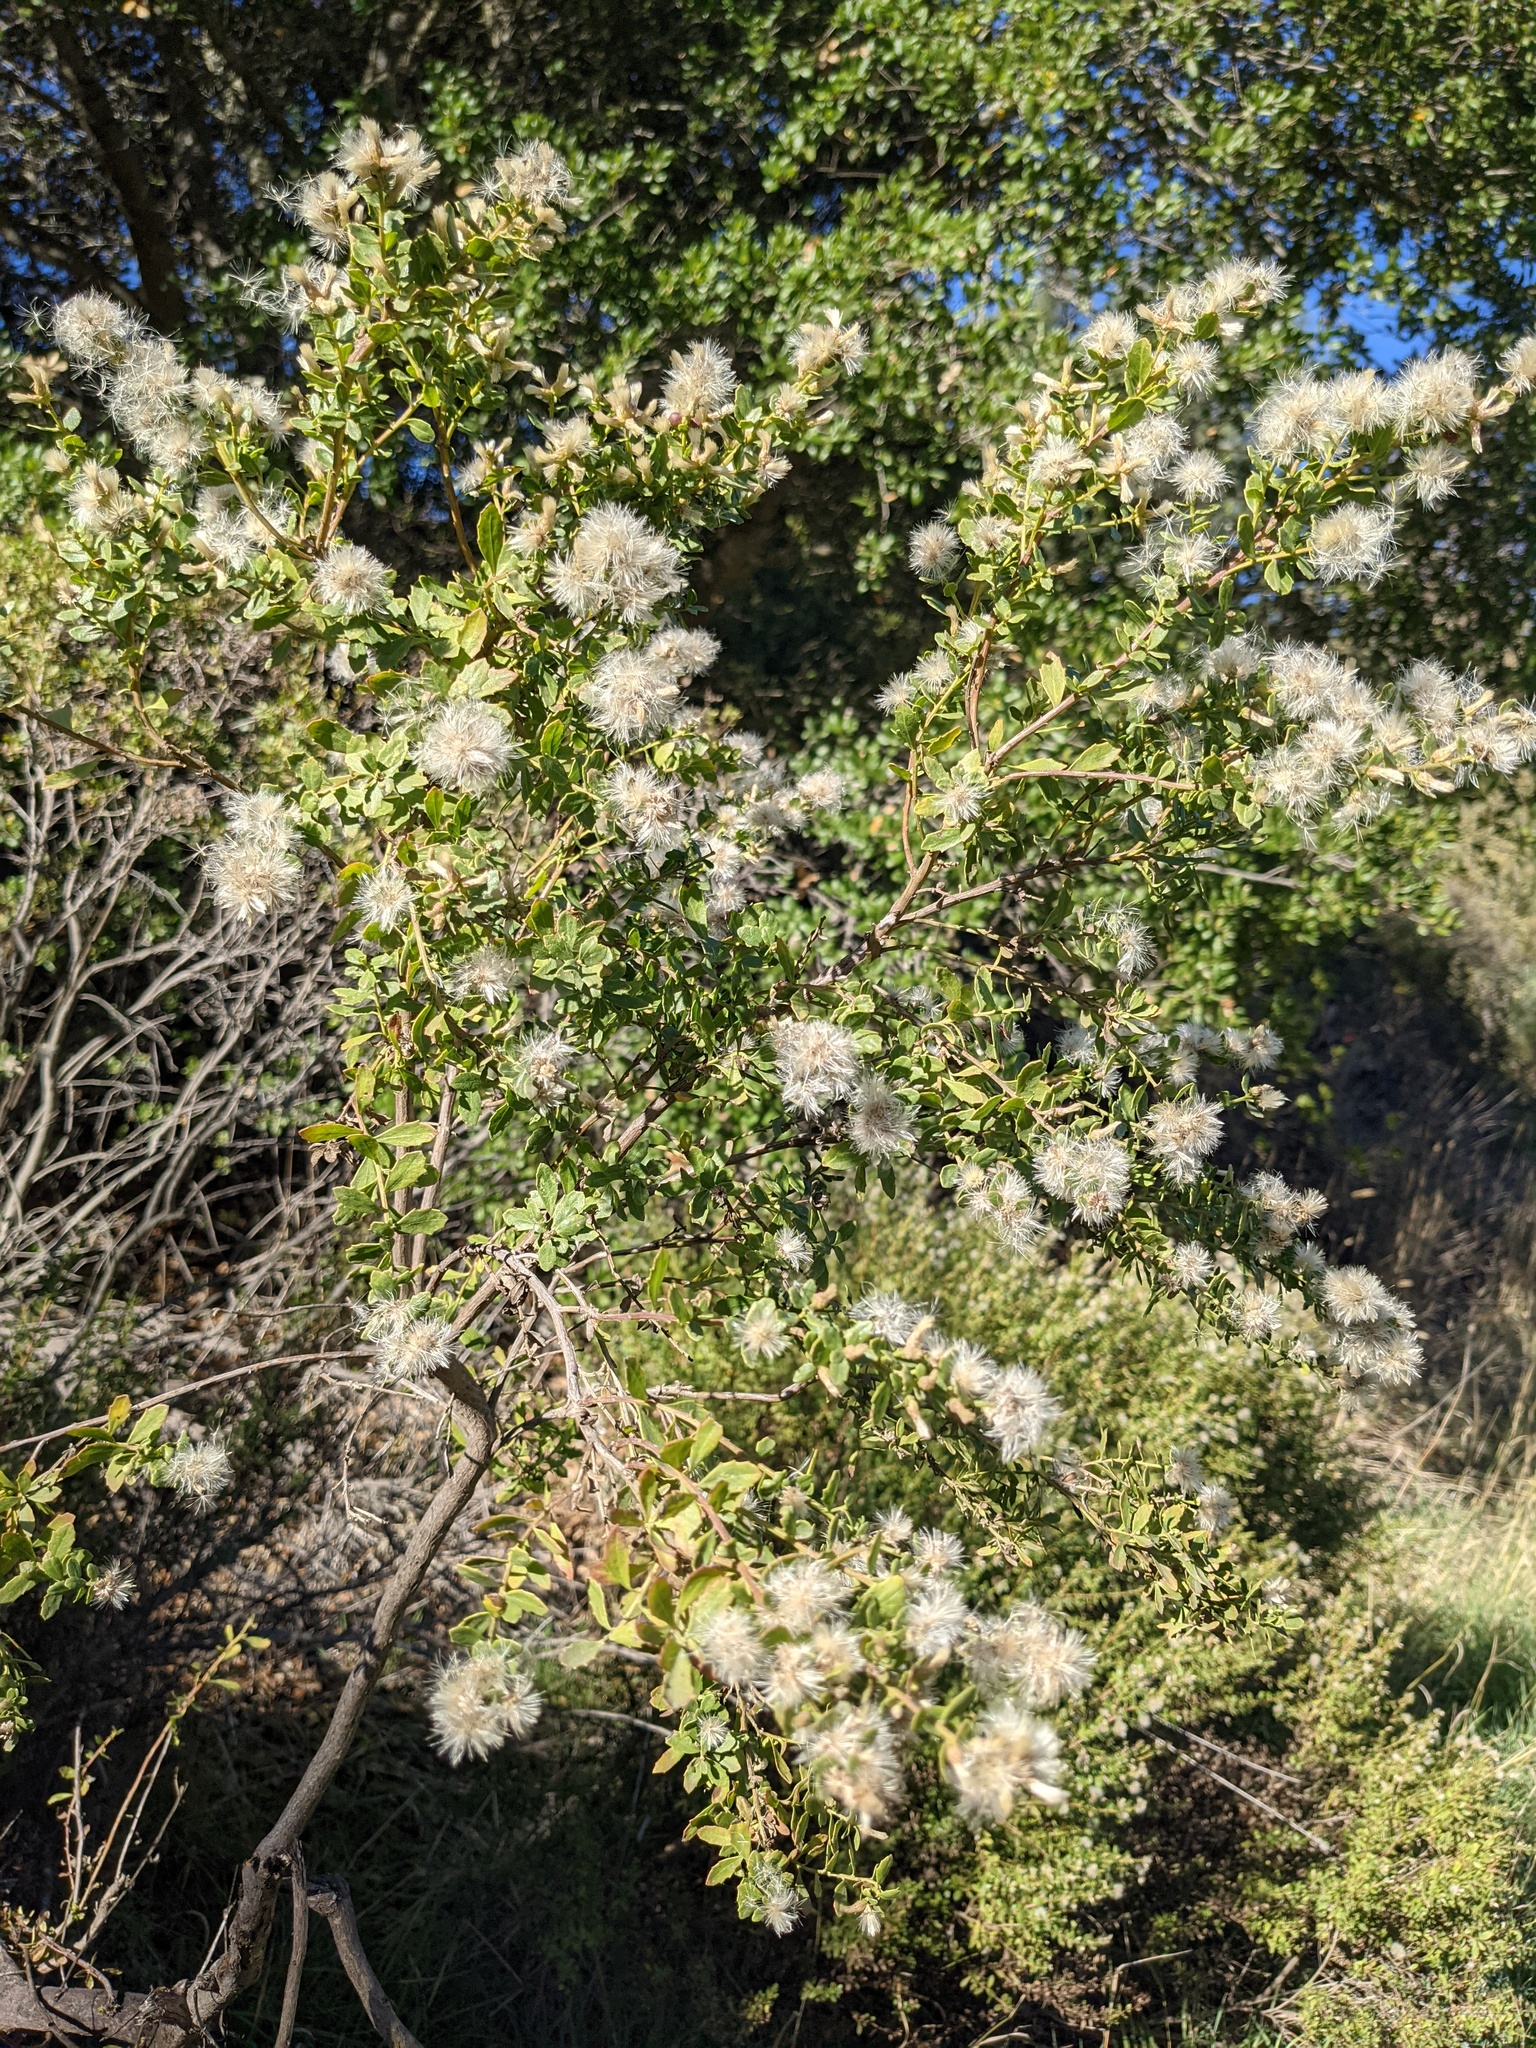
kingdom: Plantae
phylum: Tracheophyta
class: Magnoliopsida
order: Asterales
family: Asteraceae
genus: Baccharis
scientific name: Baccharis pilularis
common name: Coyotebrush
